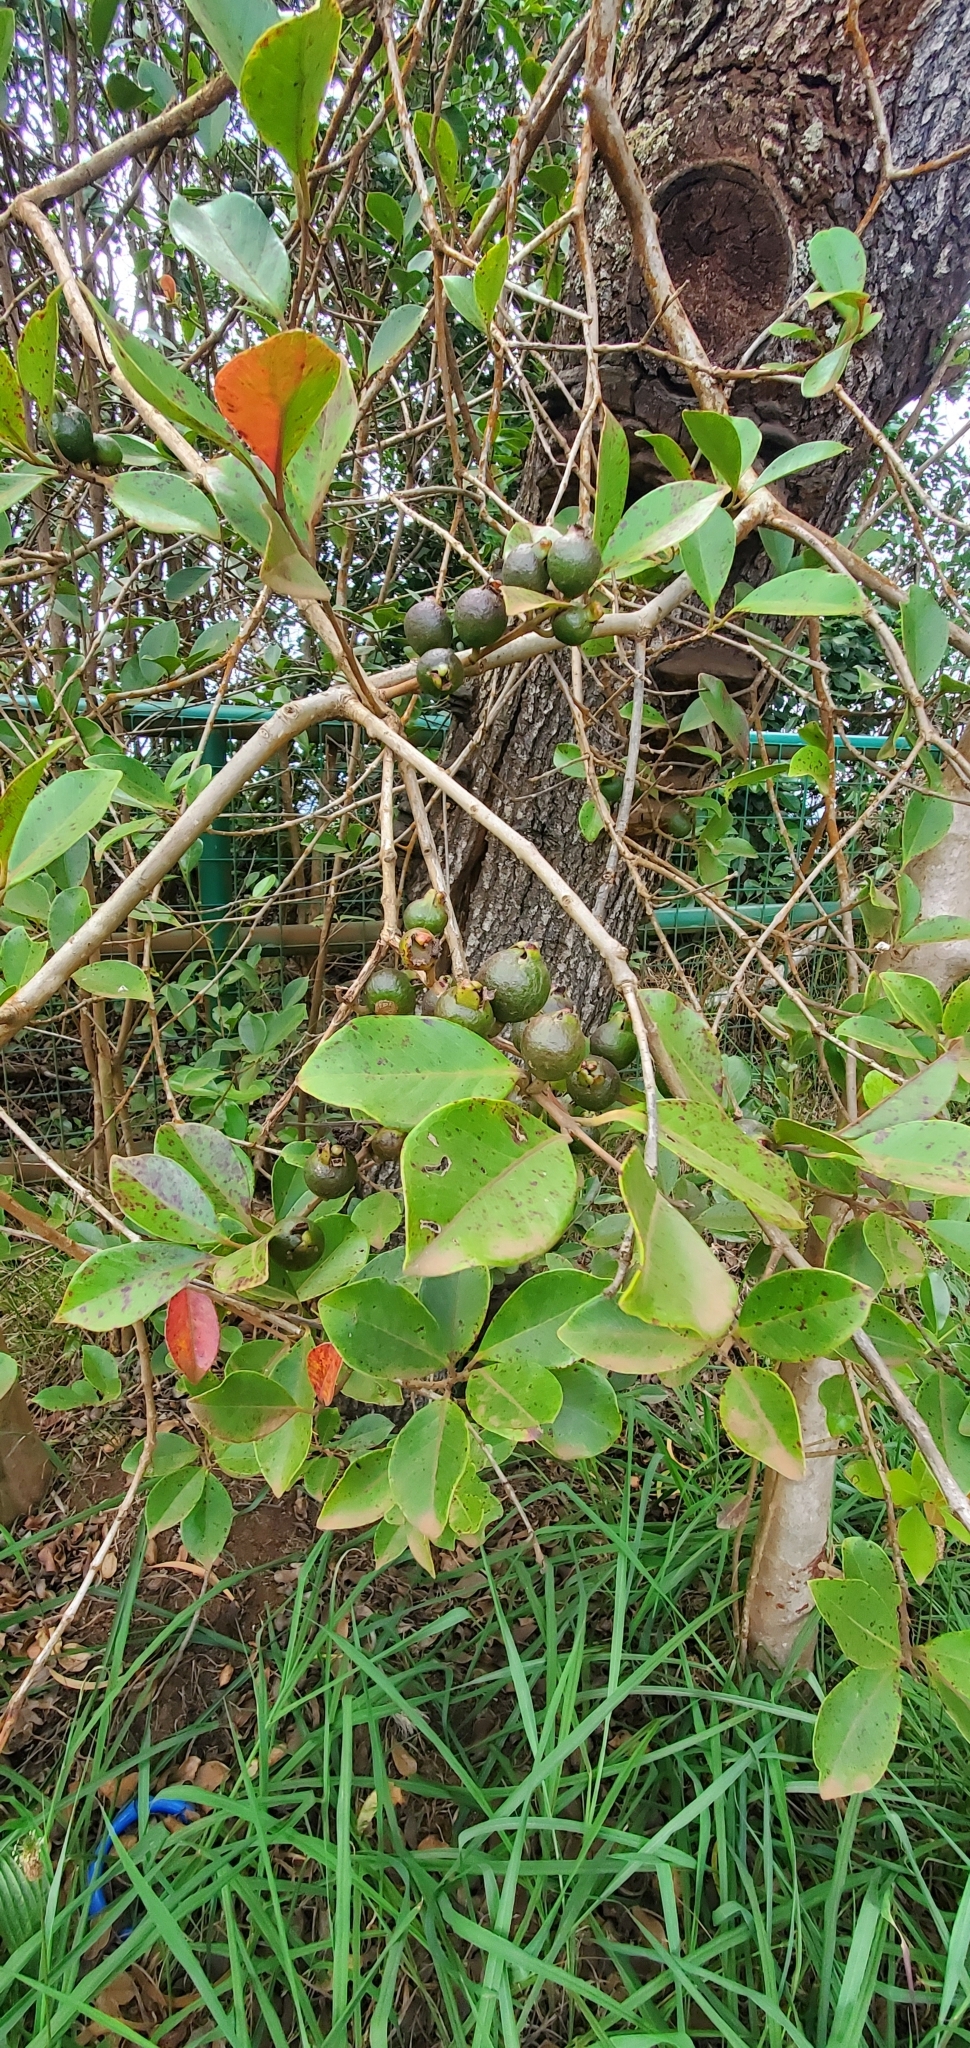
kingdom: Plantae
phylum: Tracheophyta
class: Magnoliopsida
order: Myrtales
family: Myrtaceae
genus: Psidium
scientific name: Psidium cattleianum
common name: Strawberry guava
